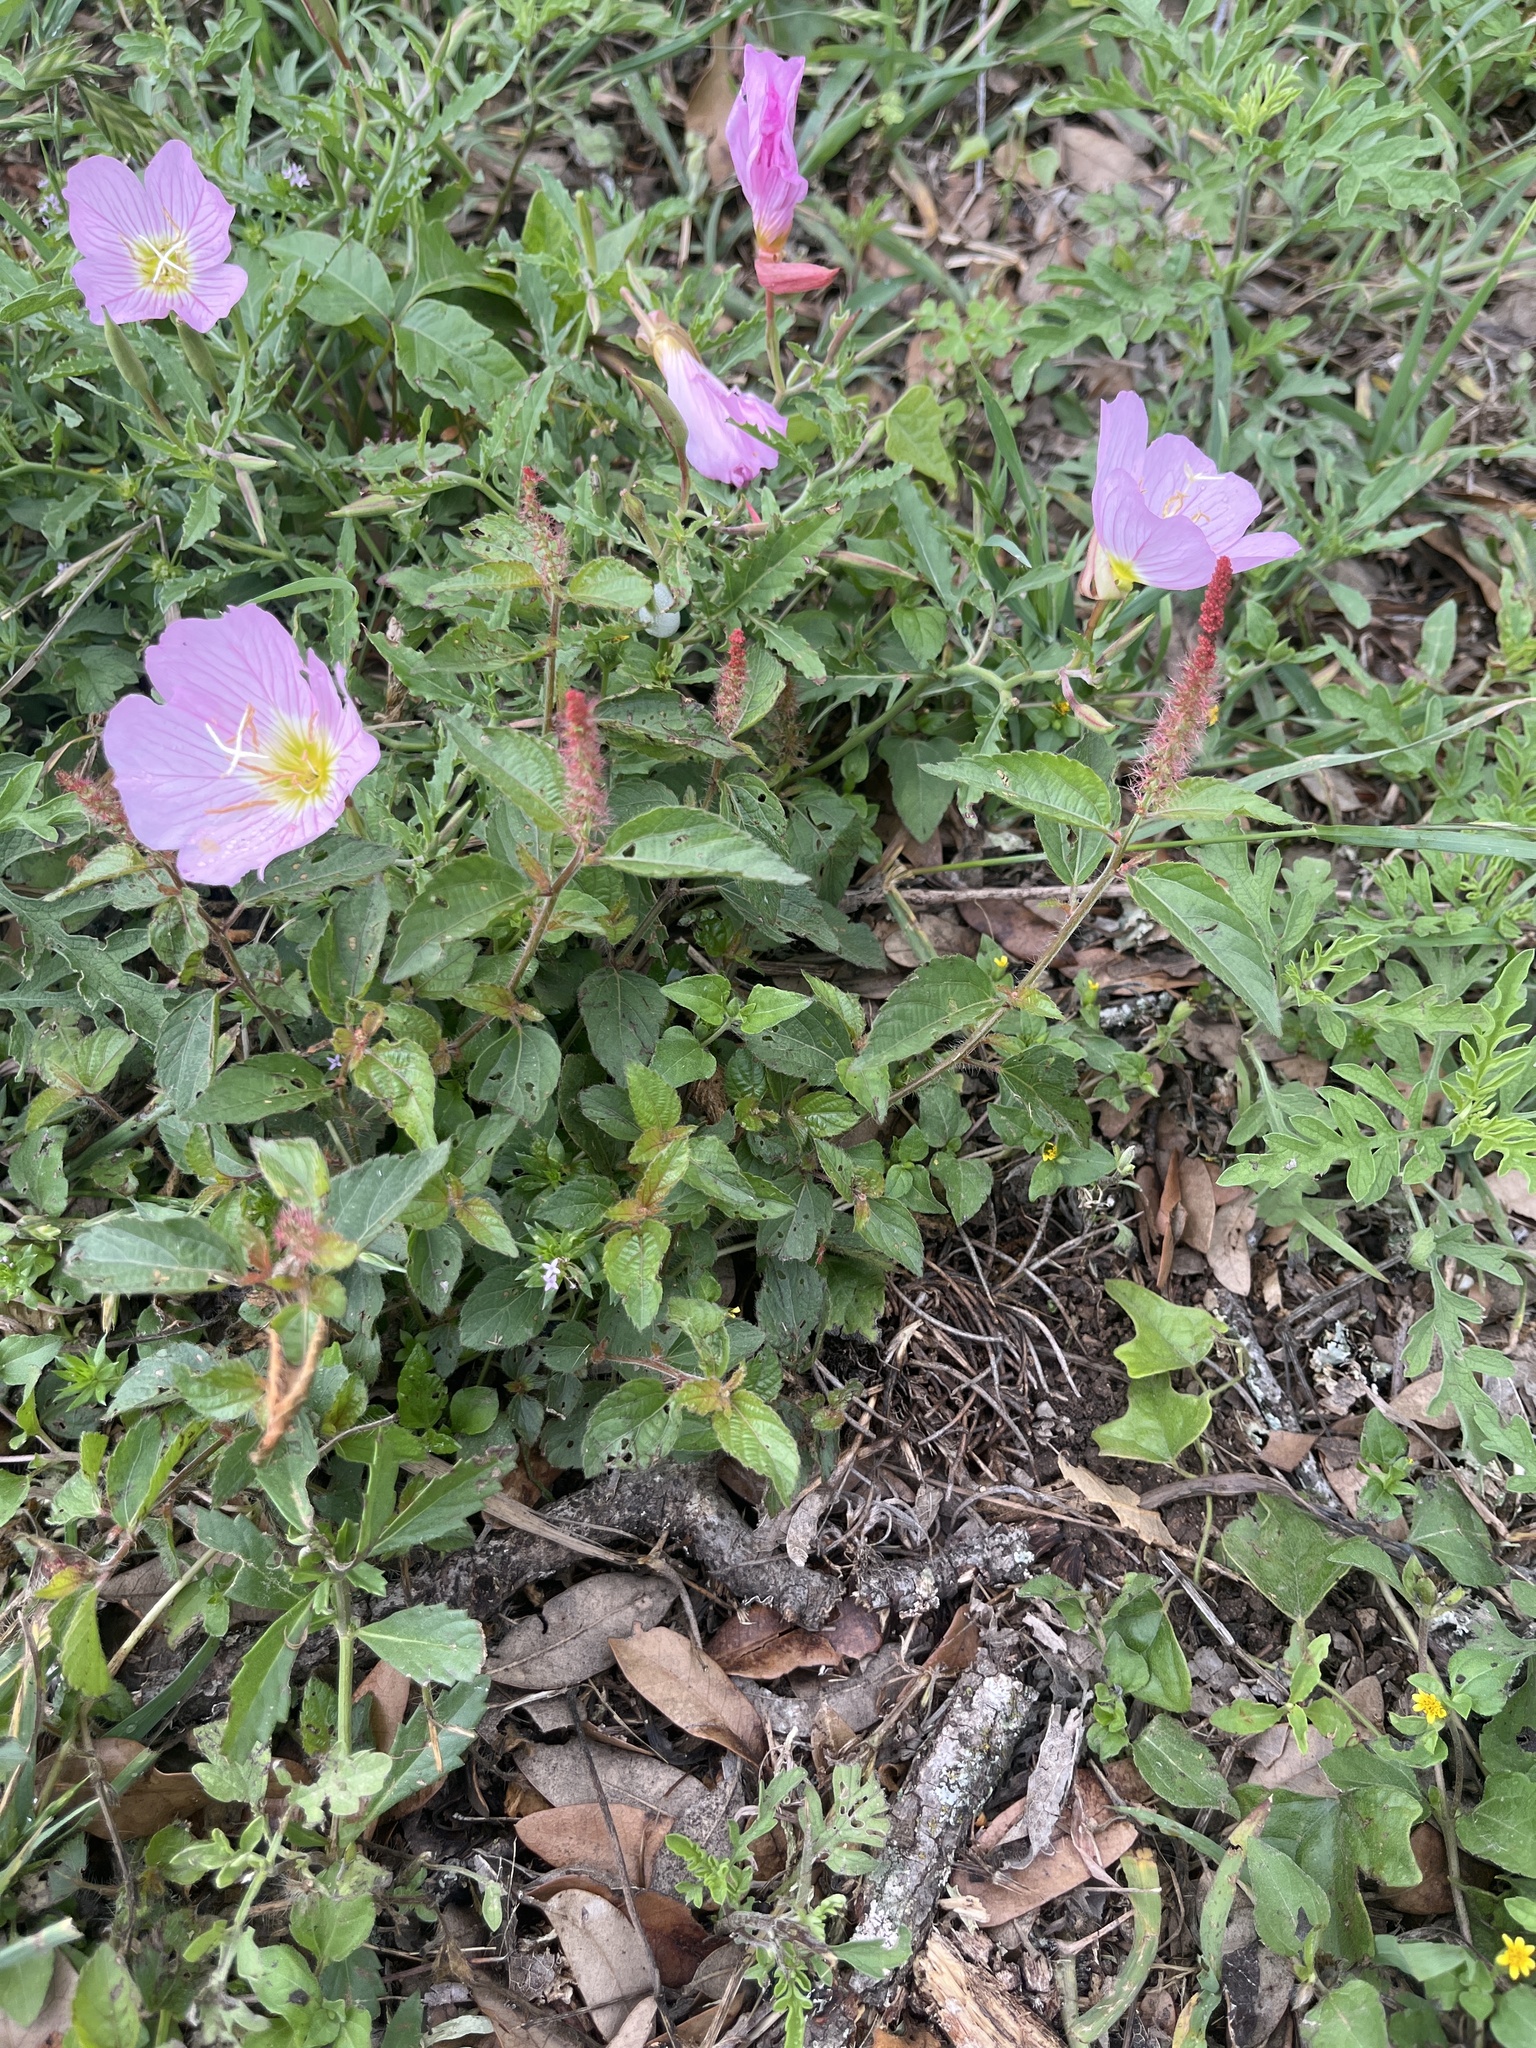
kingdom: Plantae
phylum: Tracheophyta
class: Magnoliopsida
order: Malpighiales
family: Euphorbiaceae
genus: Acalypha
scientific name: Acalypha phleoides
